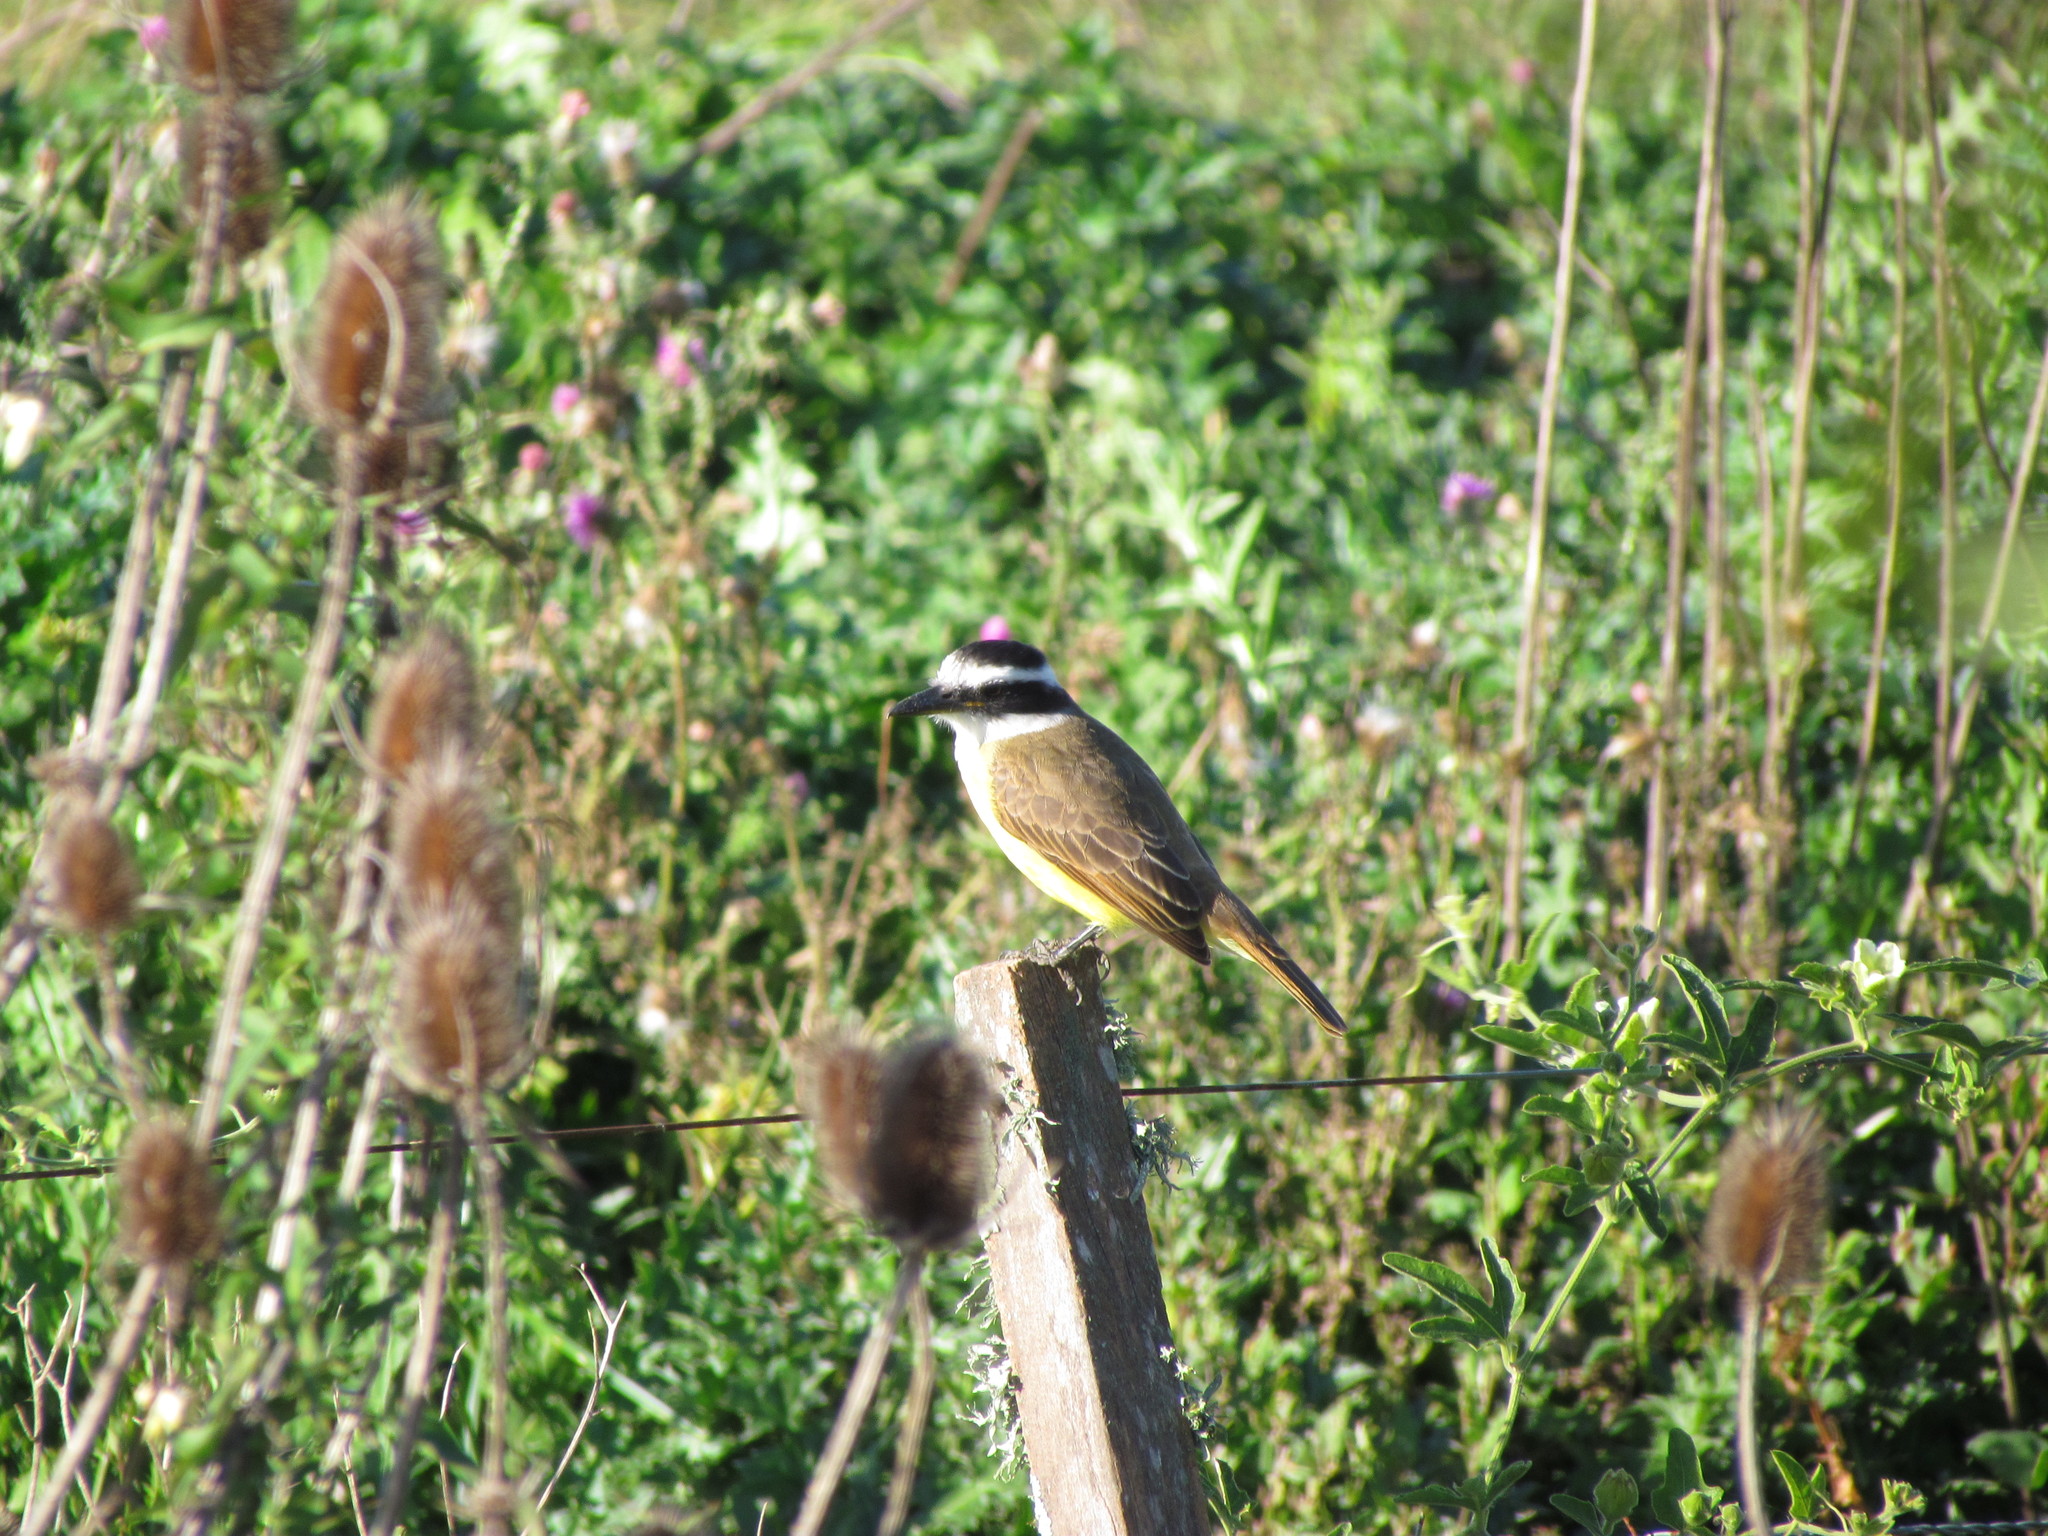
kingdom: Animalia
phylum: Chordata
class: Aves
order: Passeriformes
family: Tyrannidae
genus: Pitangus
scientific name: Pitangus sulphuratus
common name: Great kiskadee
